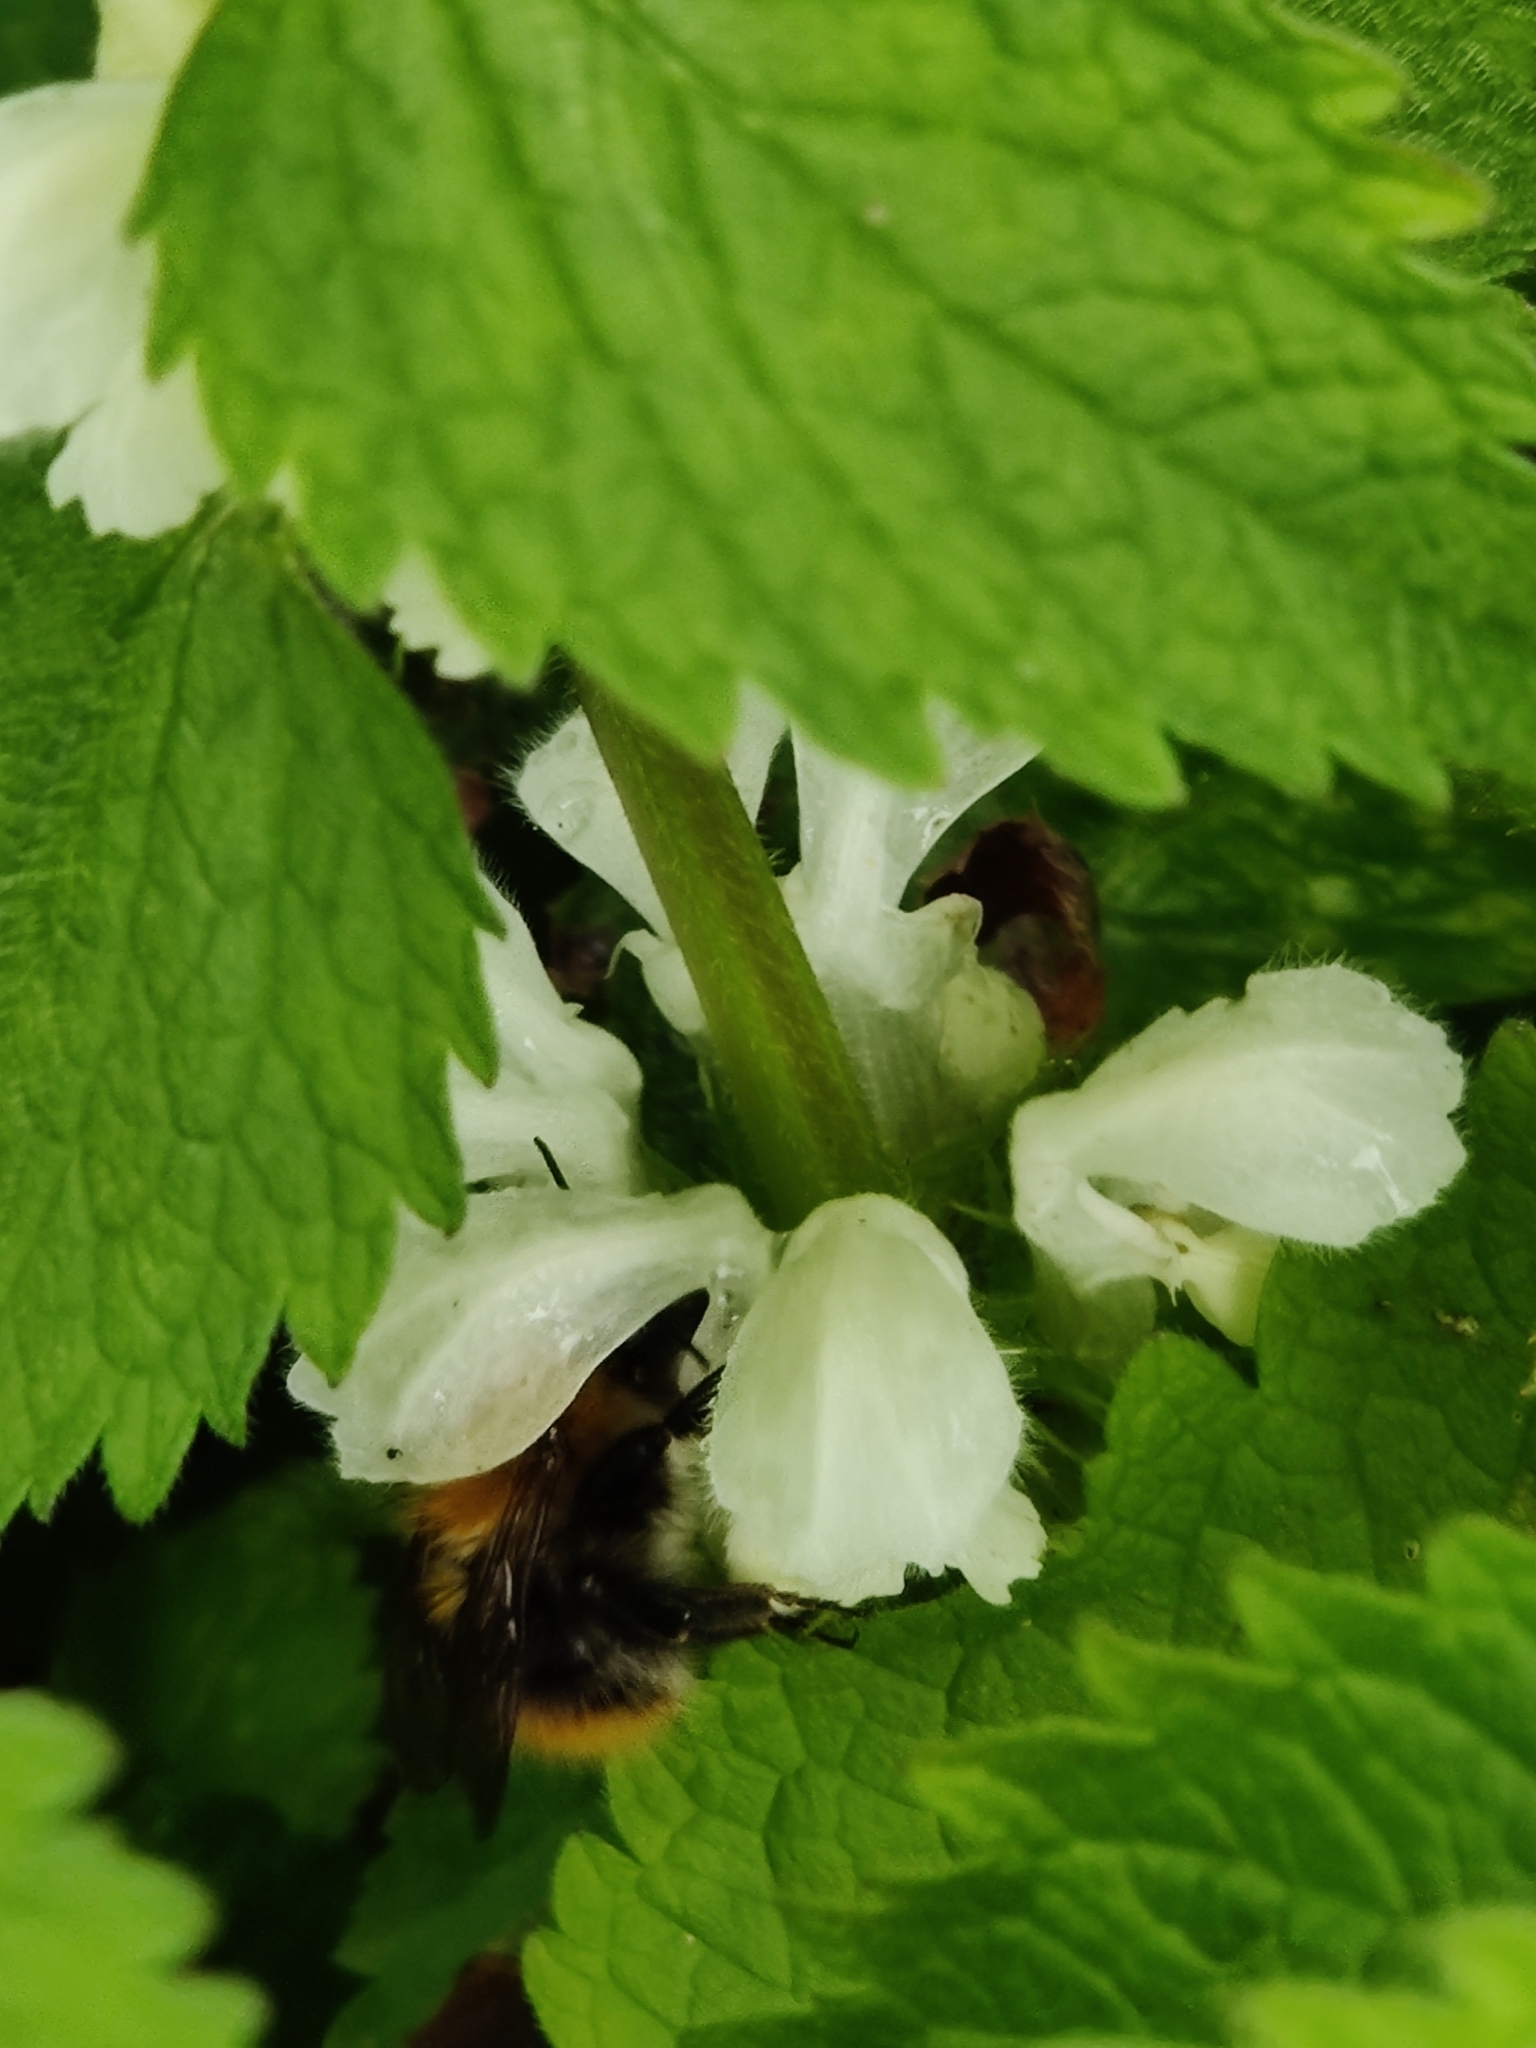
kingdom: Animalia
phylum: Arthropoda
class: Insecta
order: Hymenoptera
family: Apidae
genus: Bombus
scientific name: Bombus pascuorum
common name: Common carder bee
